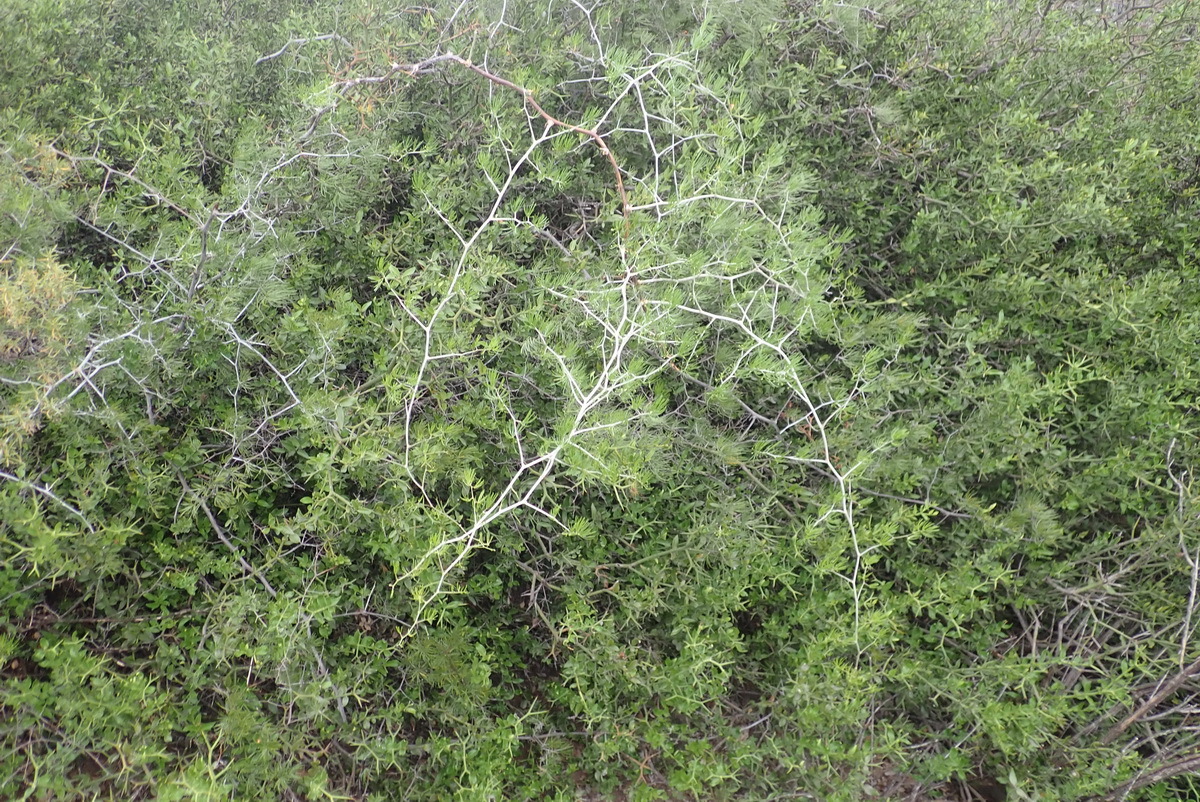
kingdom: Plantae
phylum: Tracheophyta
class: Liliopsida
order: Asparagales
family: Asparagaceae
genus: Asparagus
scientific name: Asparagus retrofractus
